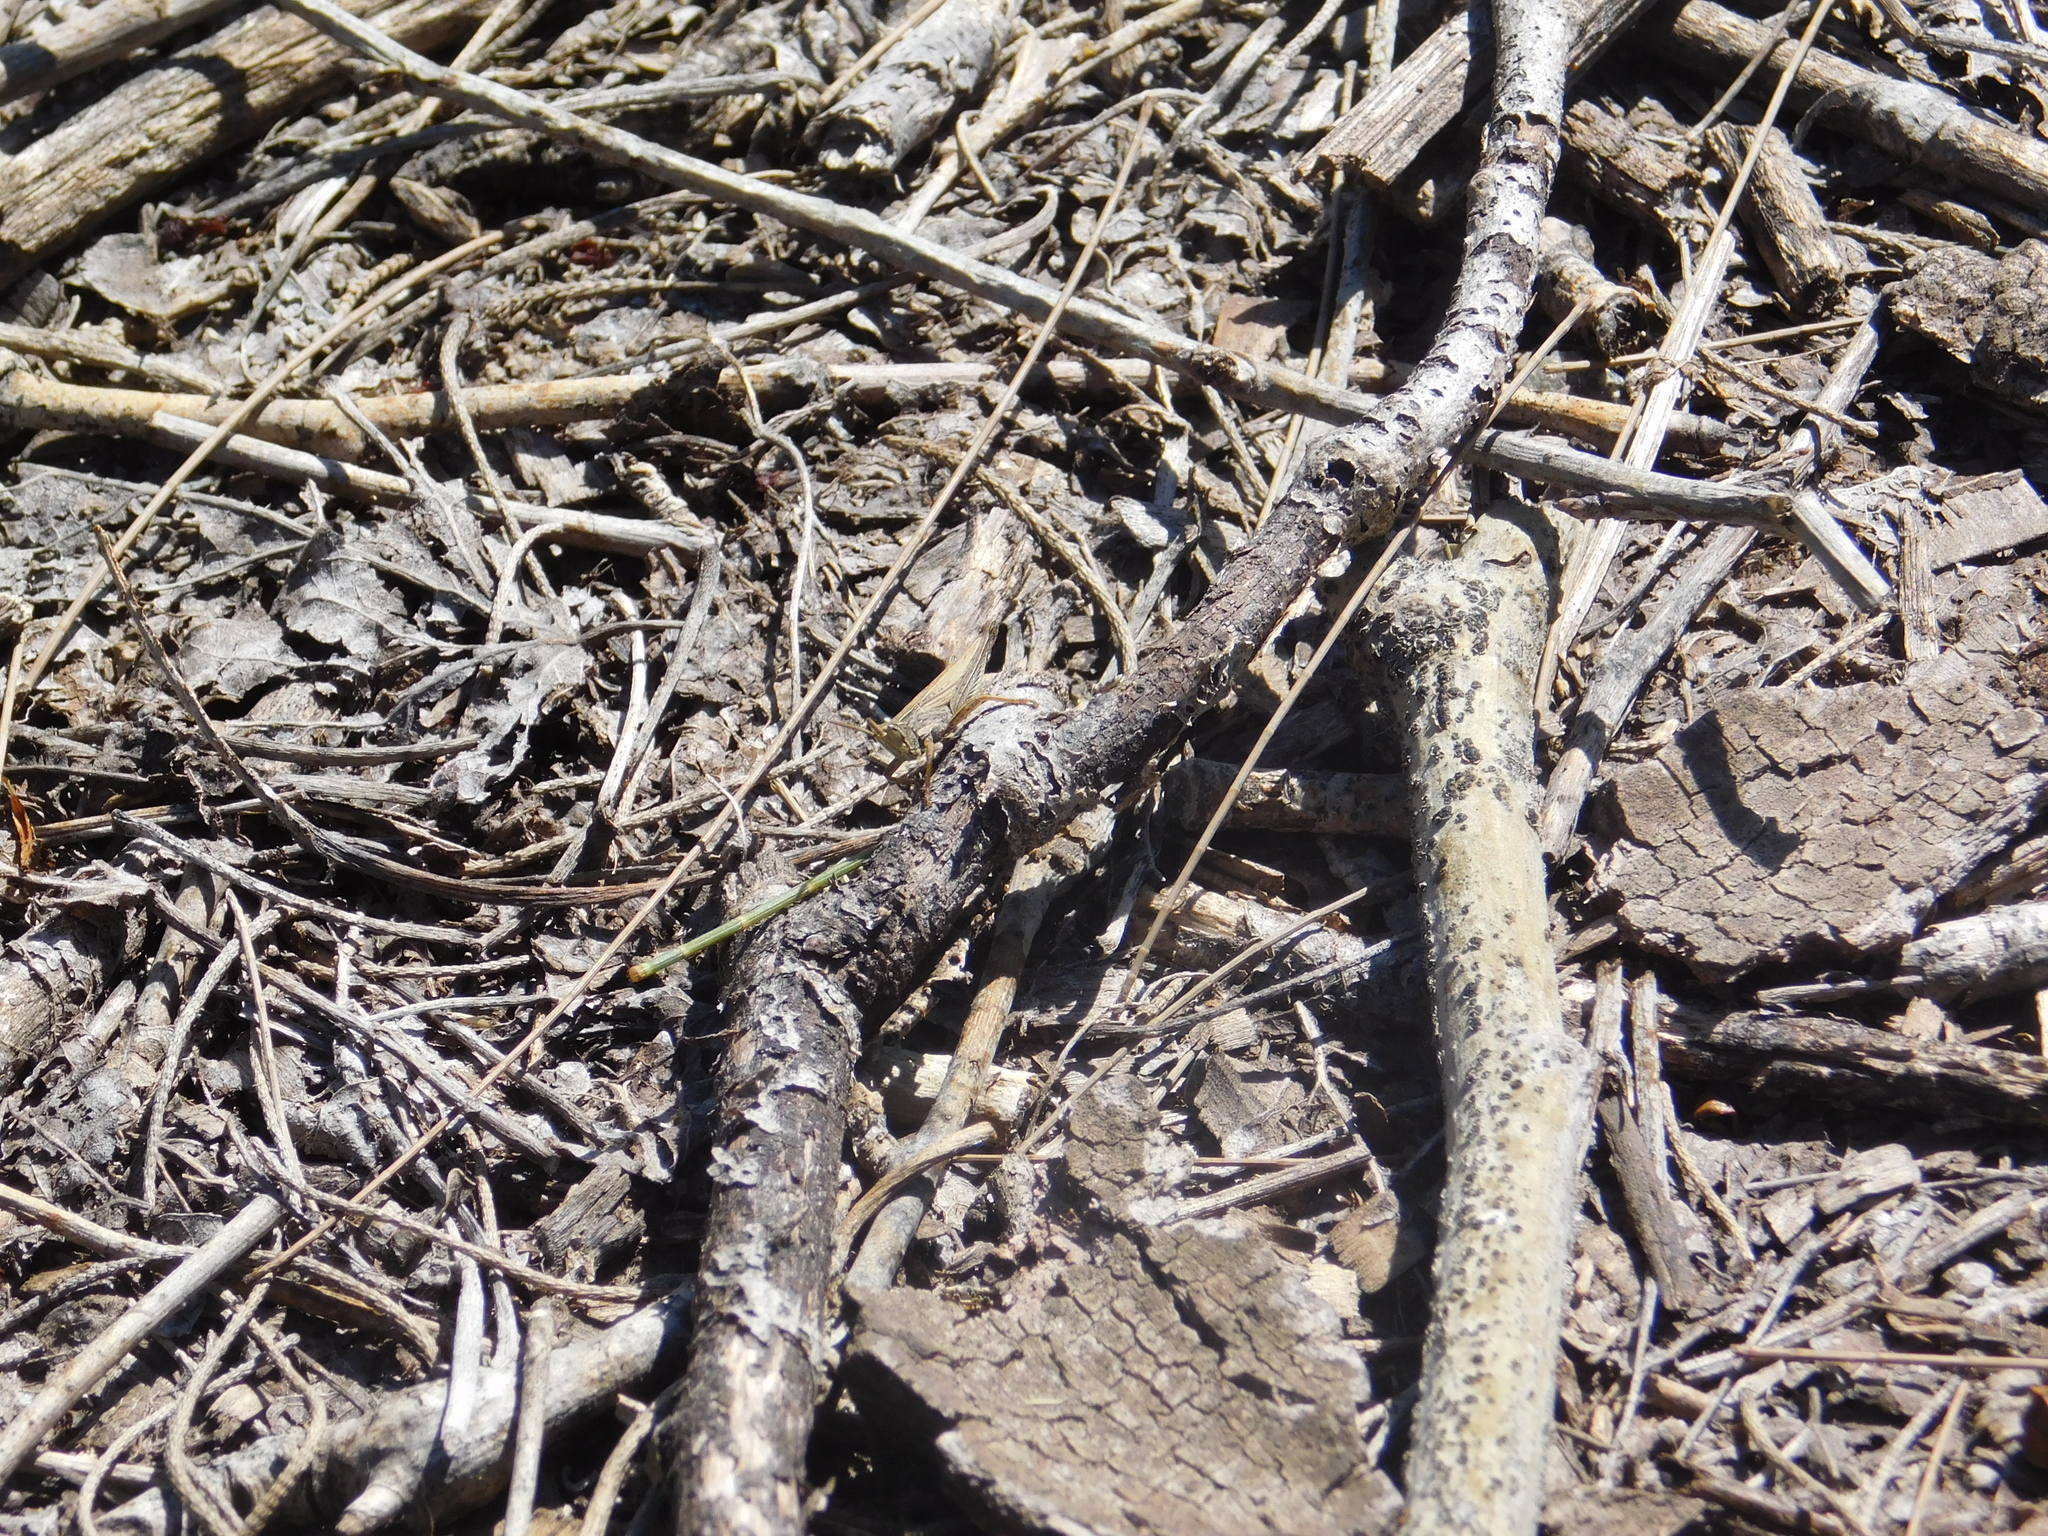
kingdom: Animalia
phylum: Arthropoda
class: Insecta
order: Orthoptera
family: Acrididae
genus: Laplatacris
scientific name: Laplatacris dispar
